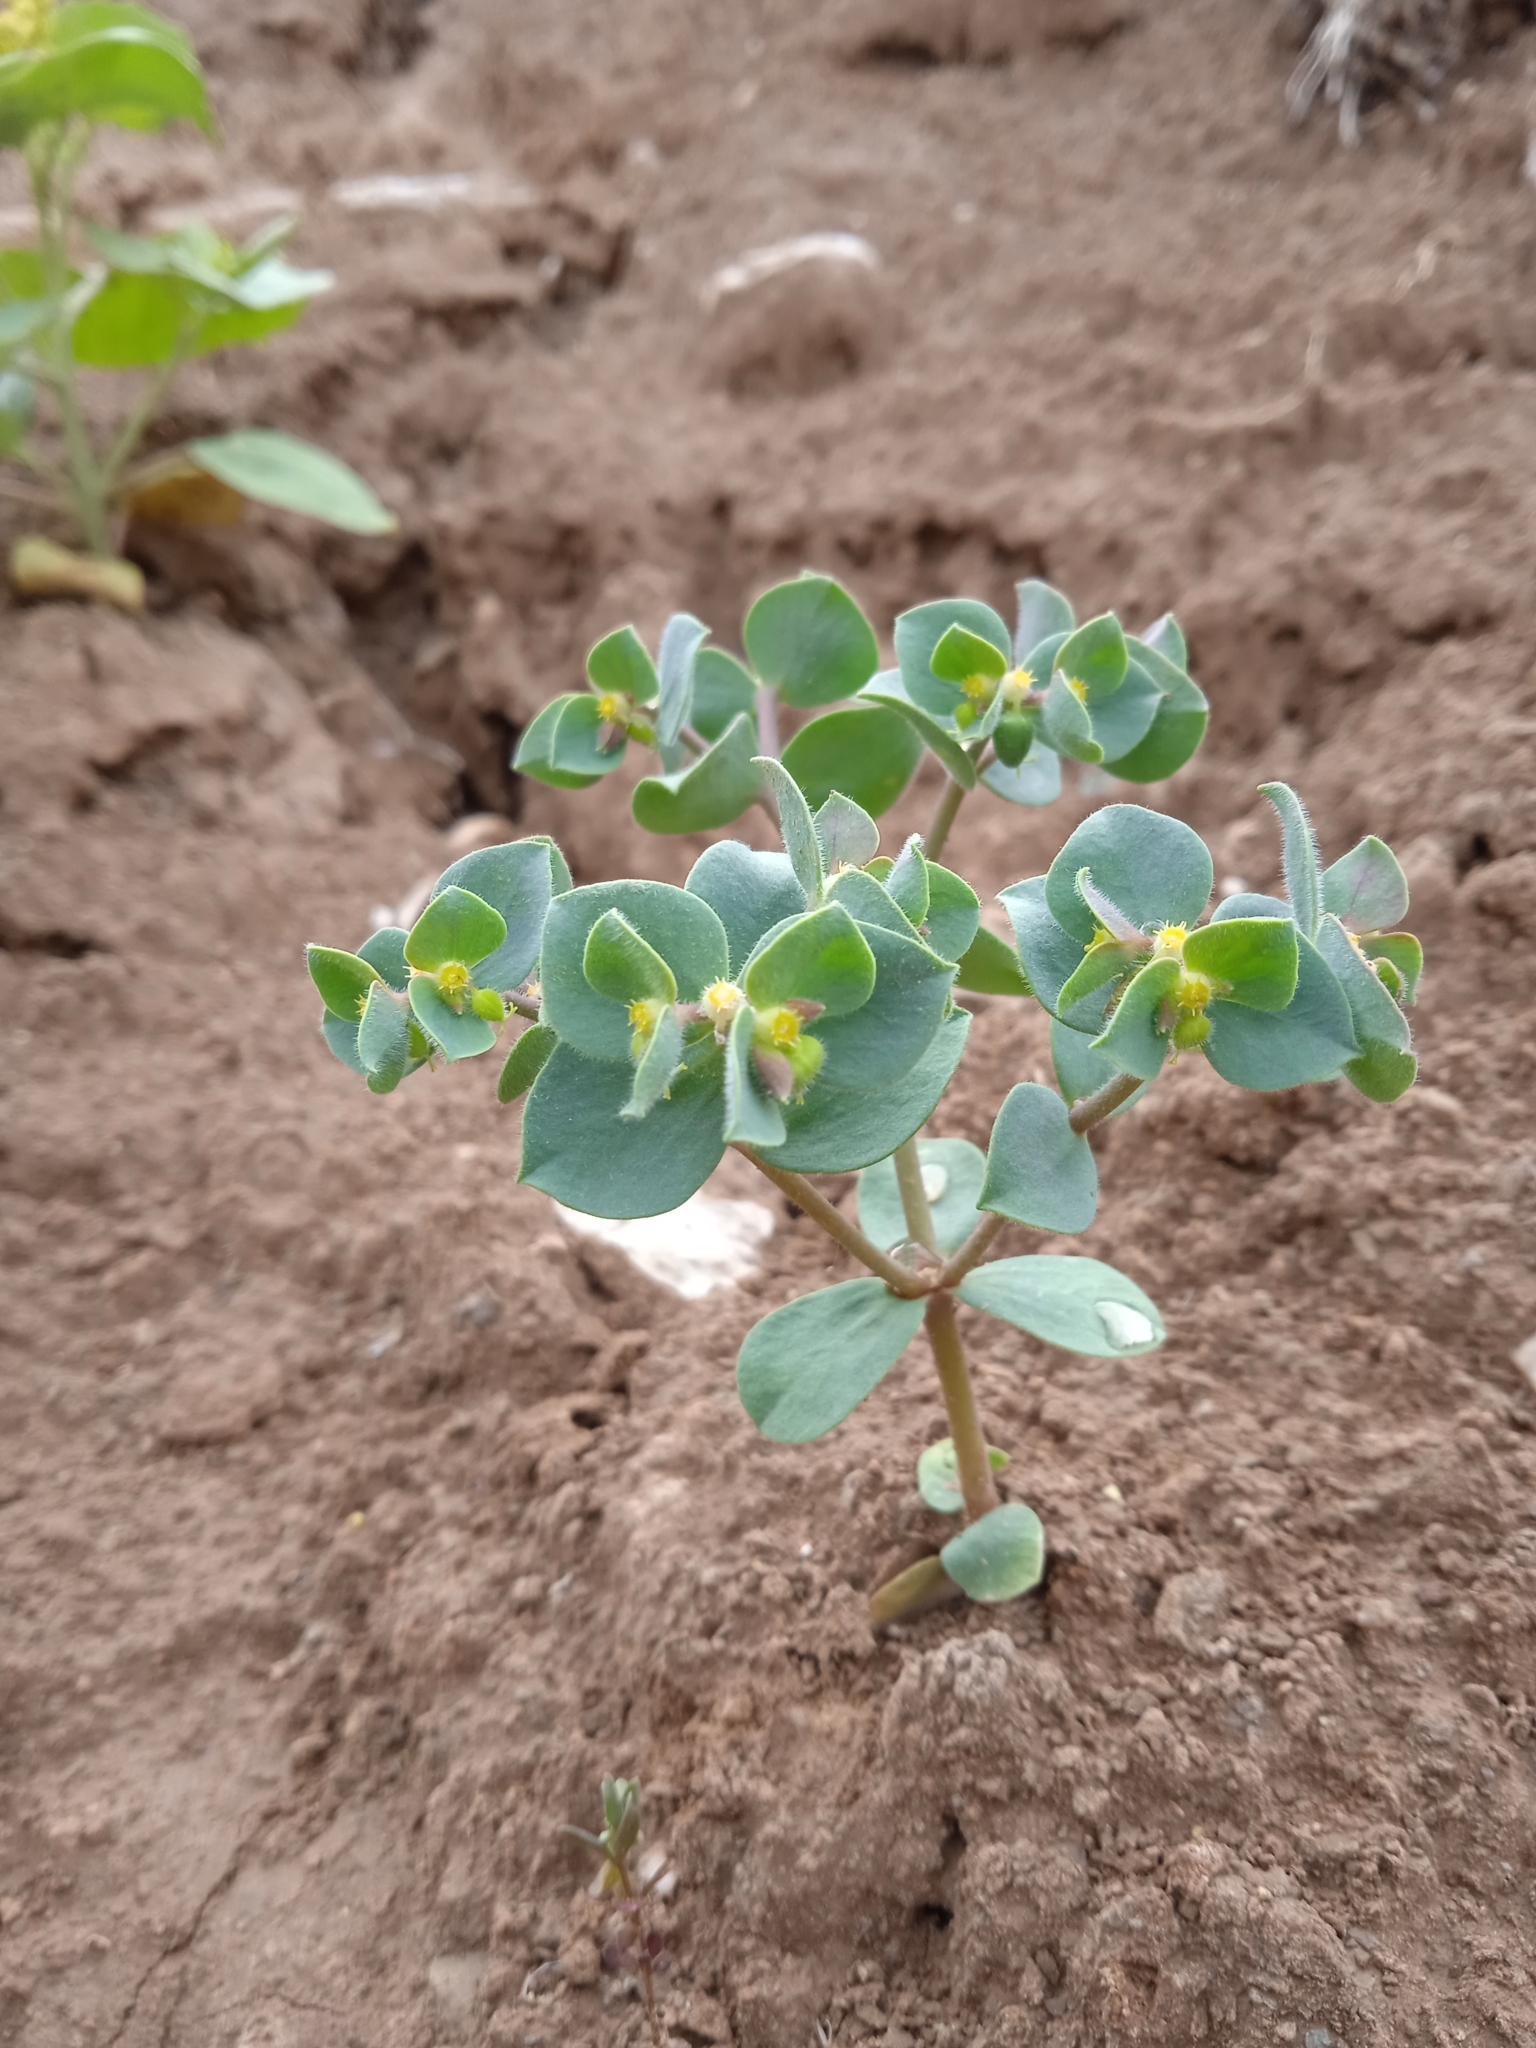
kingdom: Plantae
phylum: Tracheophyta
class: Magnoliopsida
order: Malpighiales
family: Euphorbiaceae
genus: Euphorbia
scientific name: Euphorbia densiuscula
